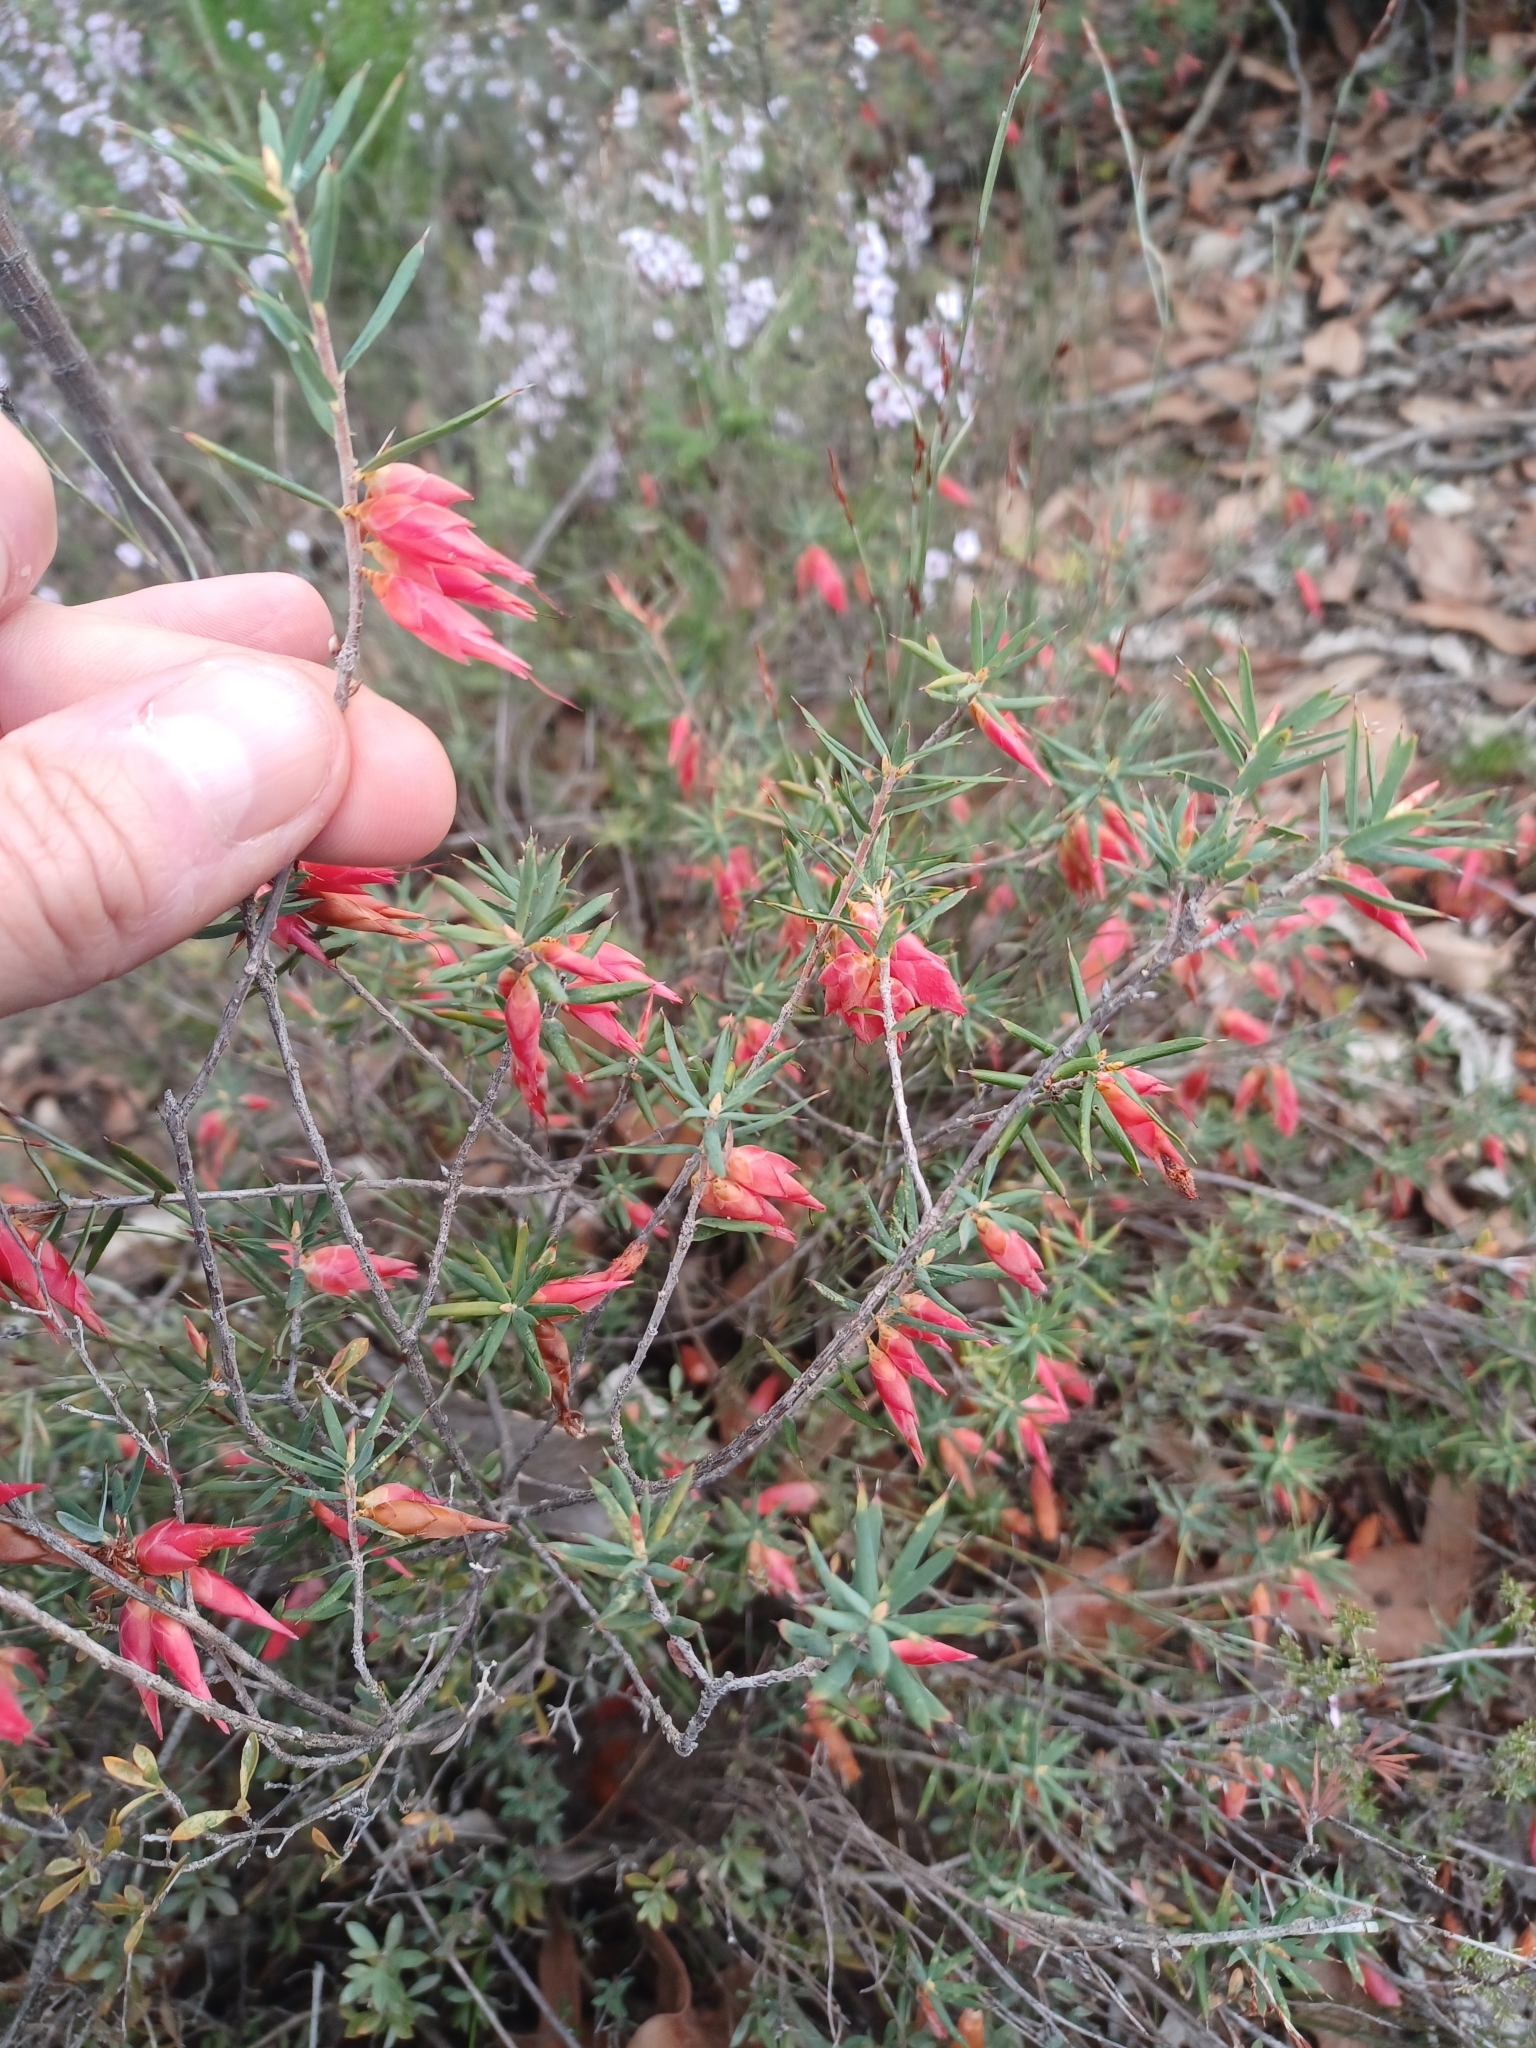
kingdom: Plantae
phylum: Tracheophyta
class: Magnoliopsida
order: Ericales
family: Ericaceae
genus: Stenanthera
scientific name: Stenanthera conostephioides
